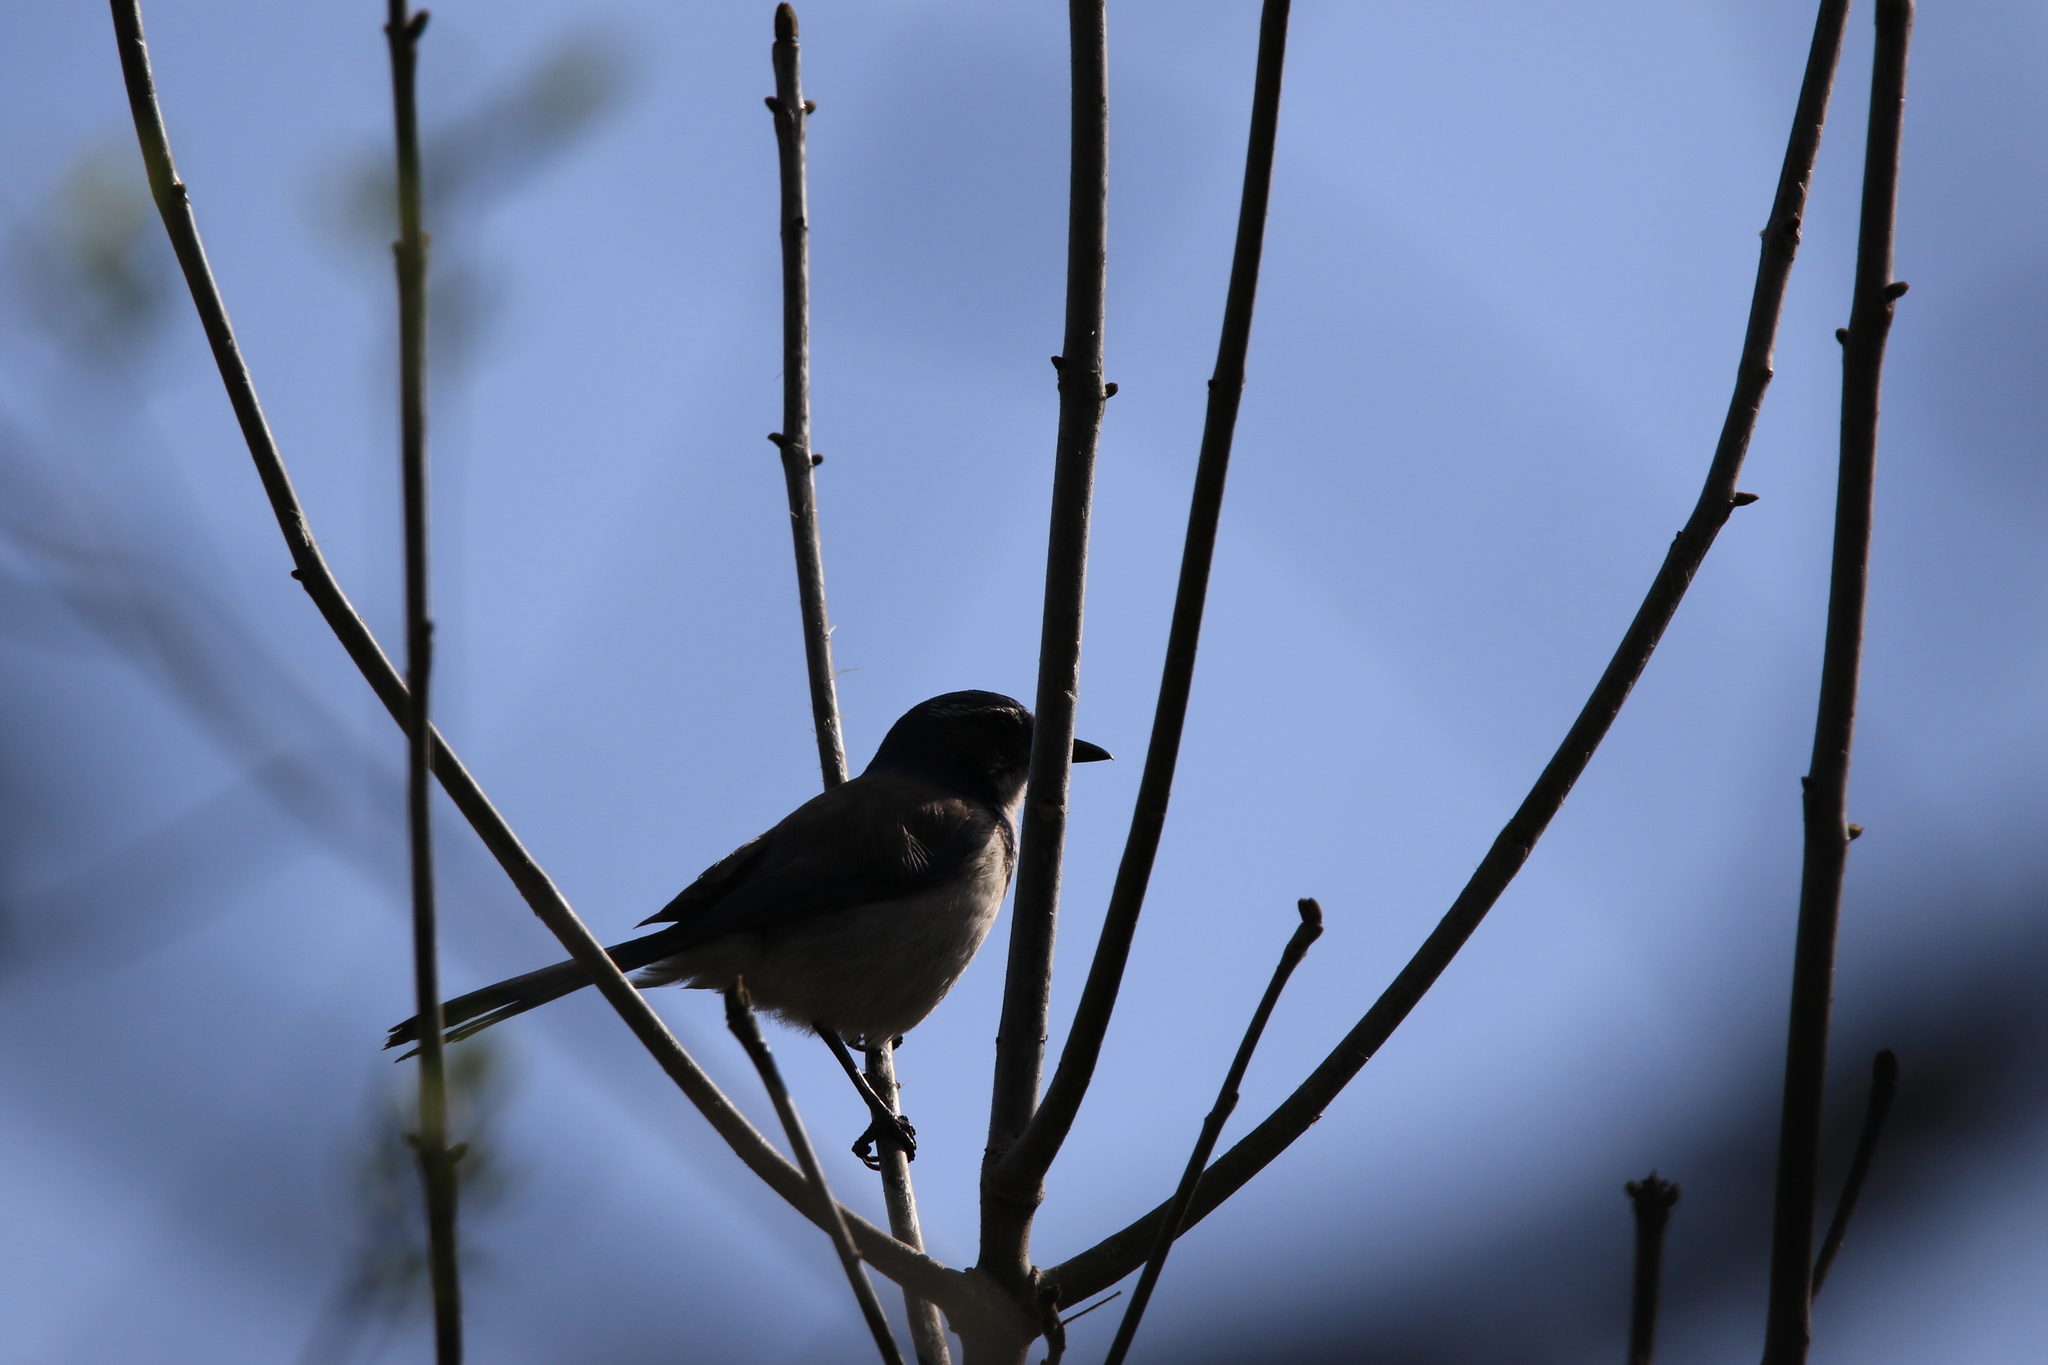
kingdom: Animalia
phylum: Chordata
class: Aves
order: Passeriformes
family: Corvidae
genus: Aphelocoma
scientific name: Aphelocoma californica
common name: California scrub-jay
